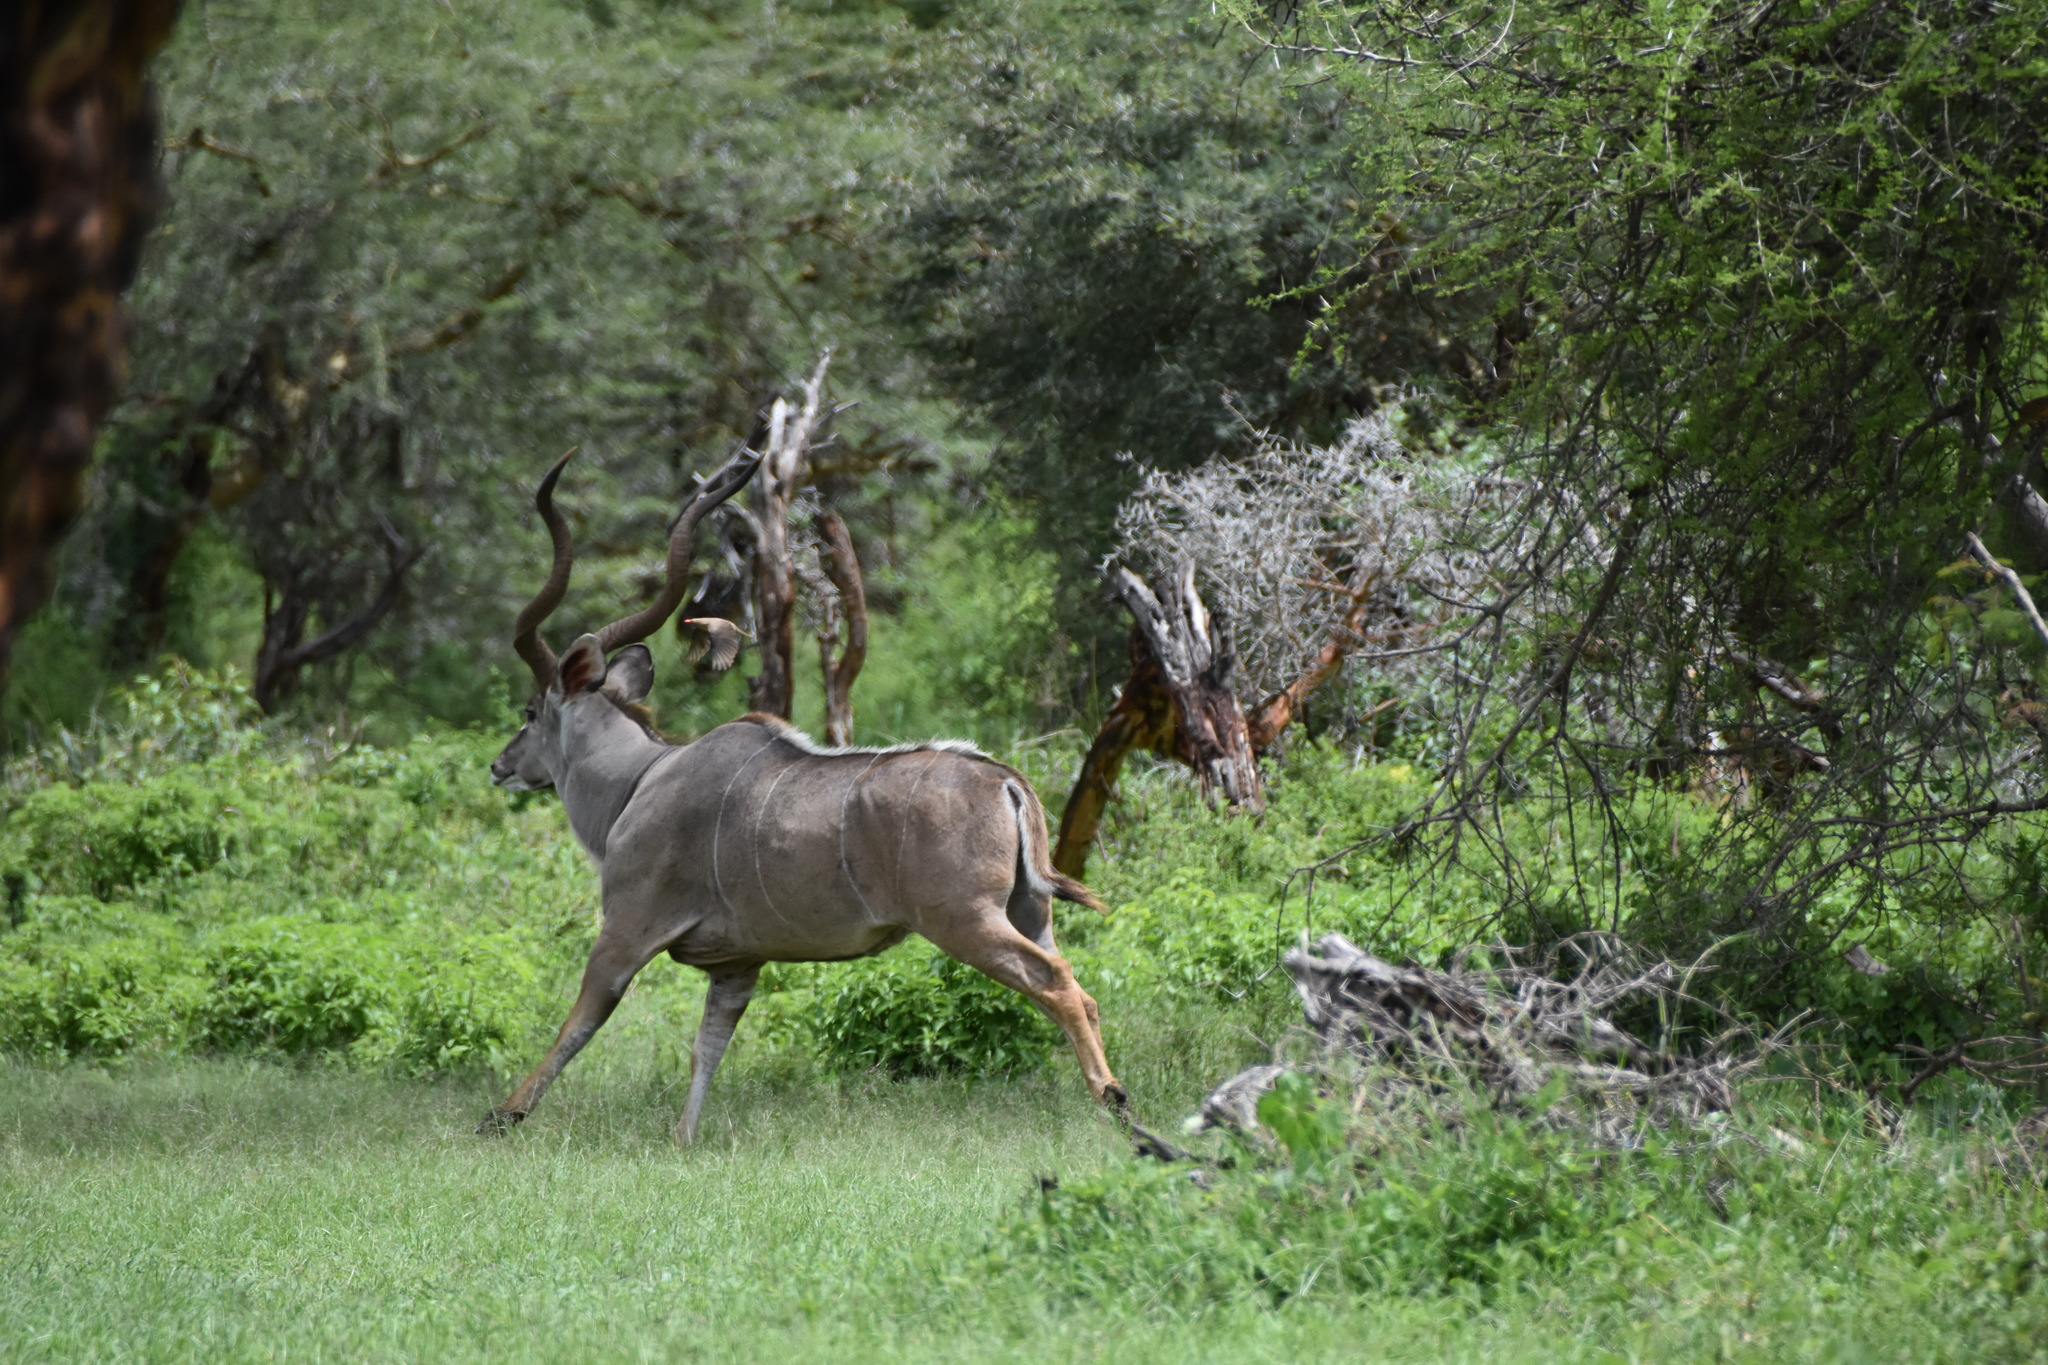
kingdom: Animalia
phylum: Chordata
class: Mammalia
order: Artiodactyla
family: Bovidae
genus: Tragelaphus
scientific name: Tragelaphus strepsiceros
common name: Greater kudu
